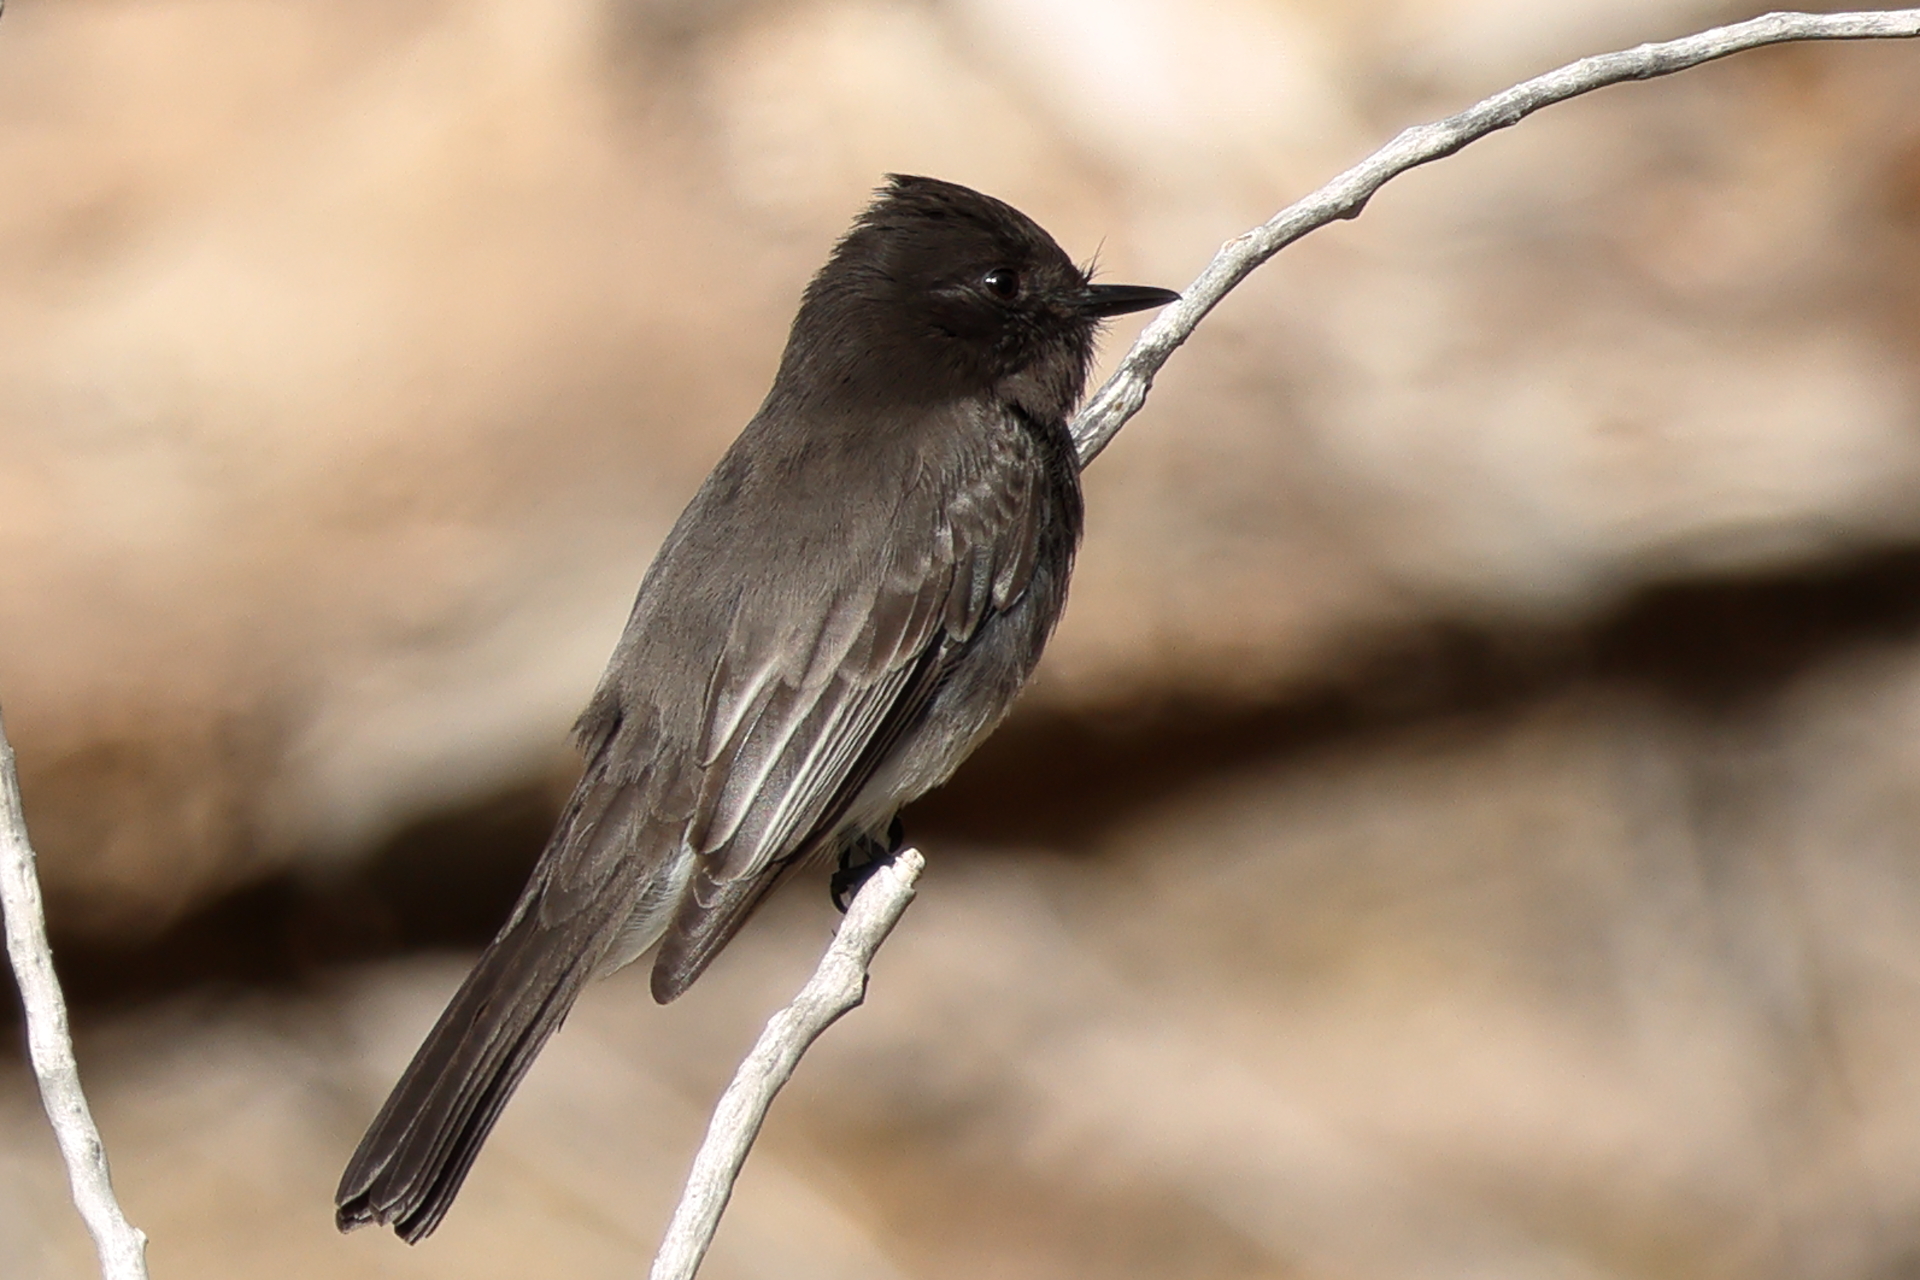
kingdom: Animalia
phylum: Chordata
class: Aves
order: Passeriformes
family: Tyrannidae
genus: Sayornis
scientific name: Sayornis nigricans
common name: Black phoebe
